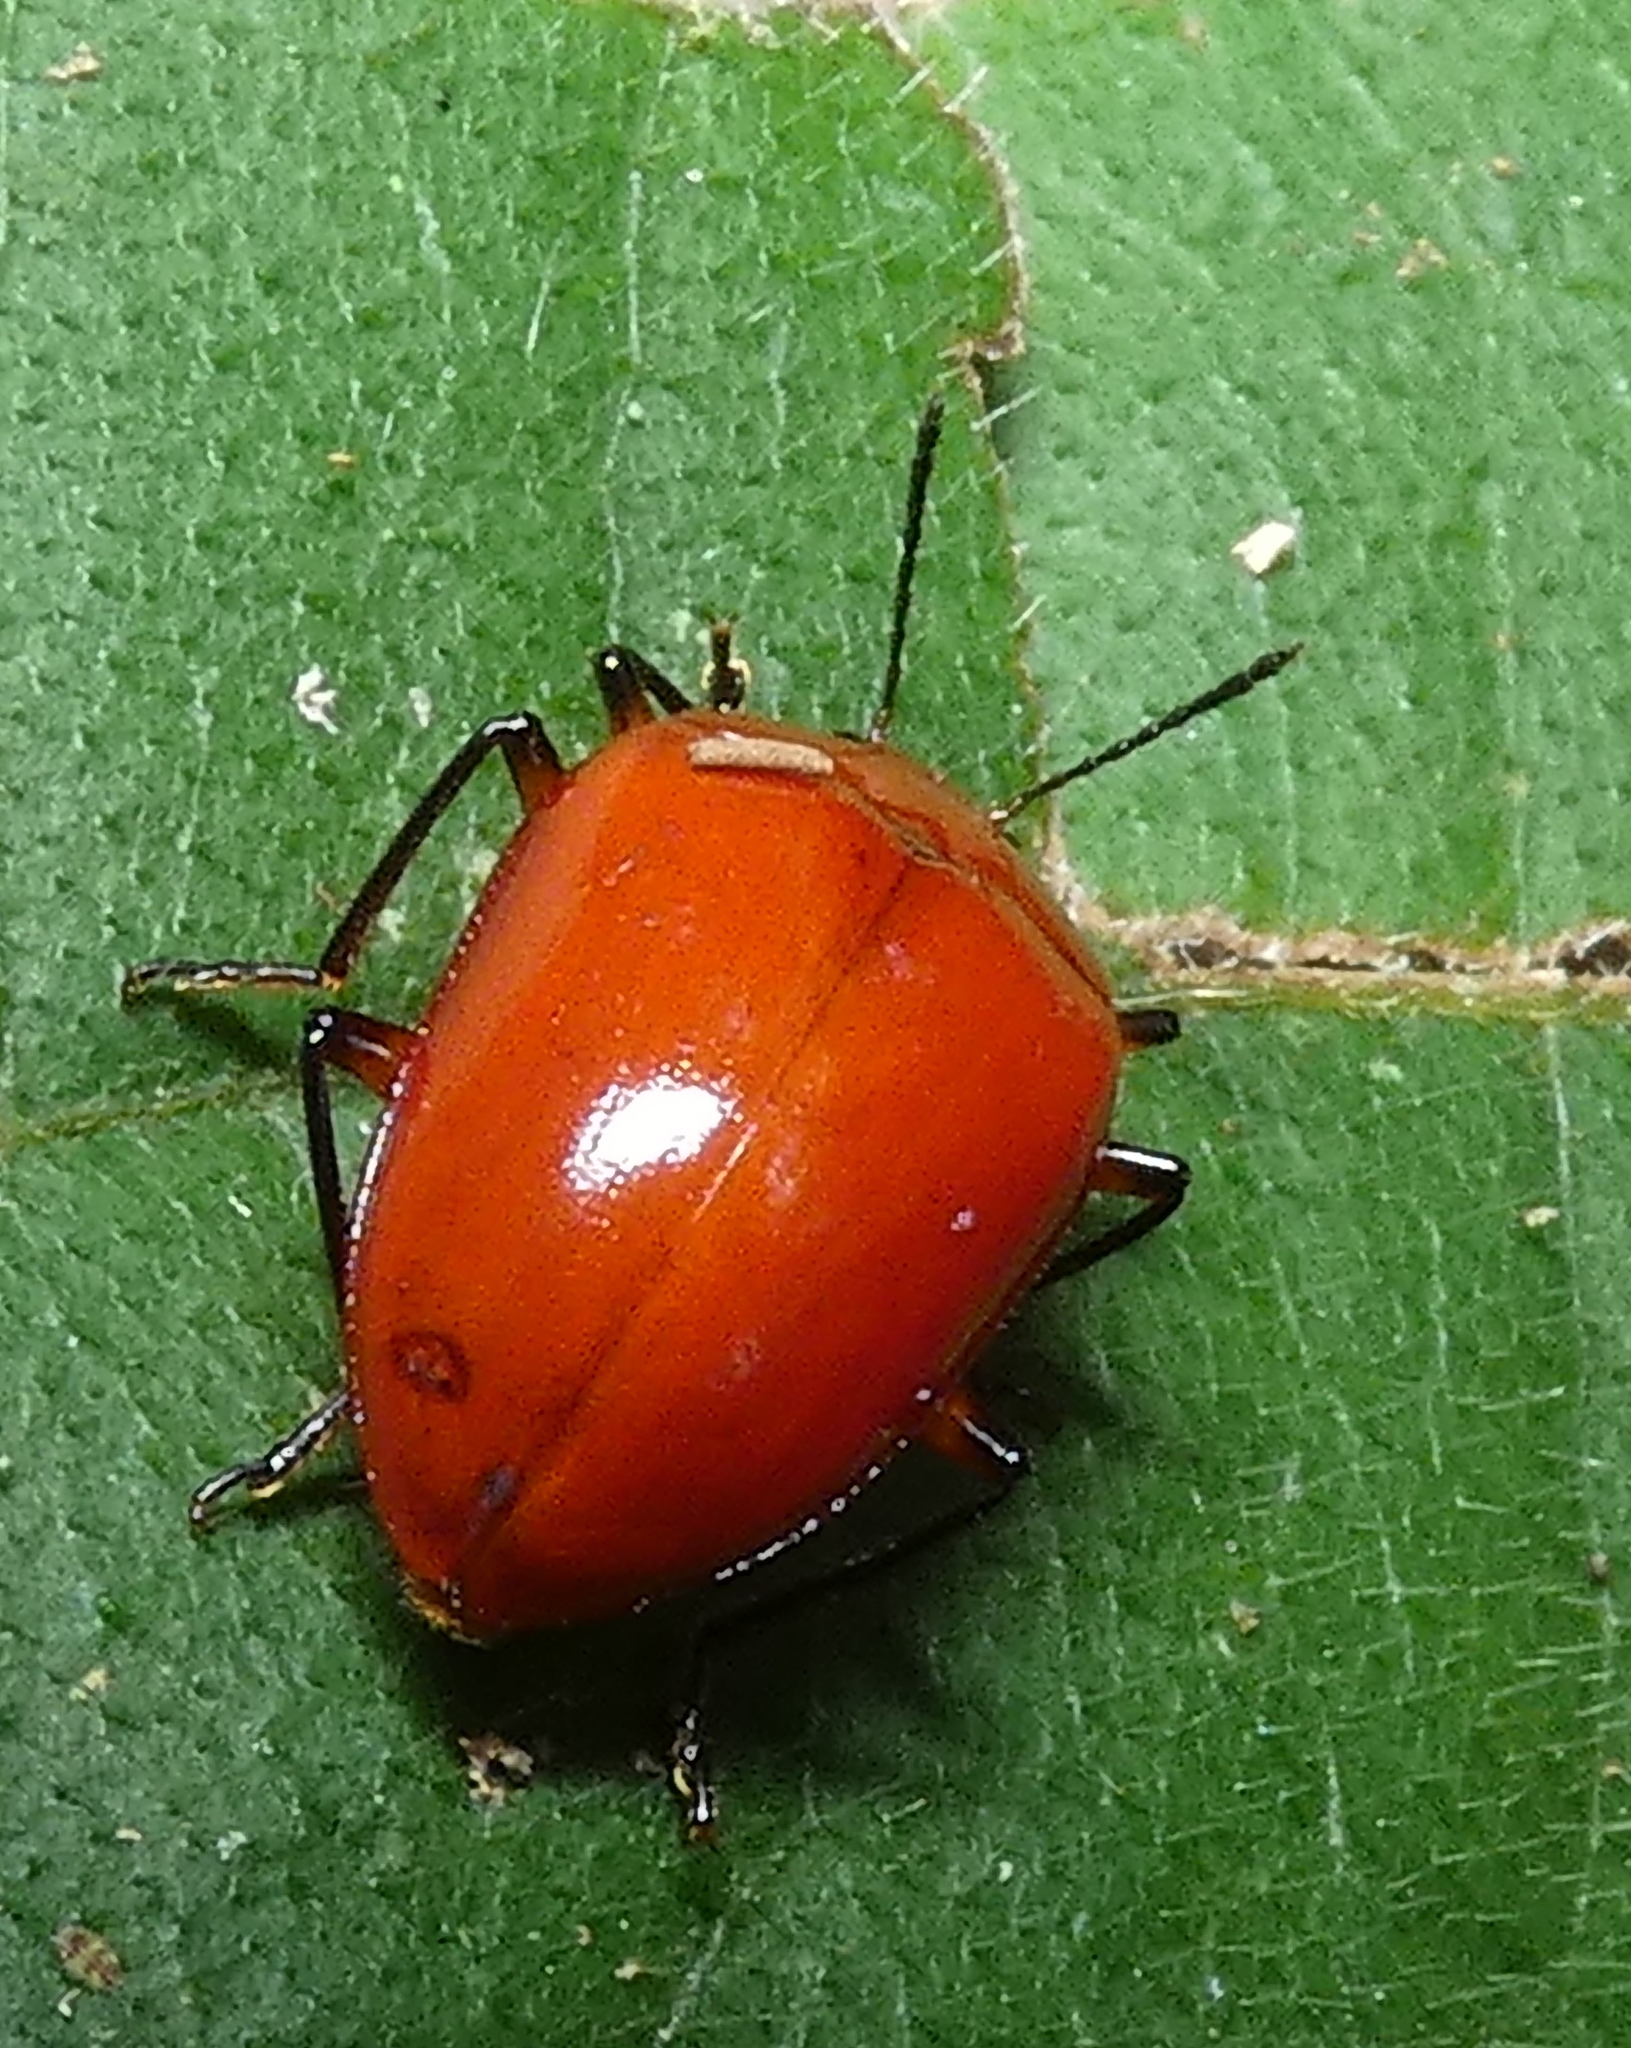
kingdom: Animalia
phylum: Arthropoda
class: Insecta
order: Coleoptera
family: Erotylidae
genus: Iphiclus
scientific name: Iphiclus
